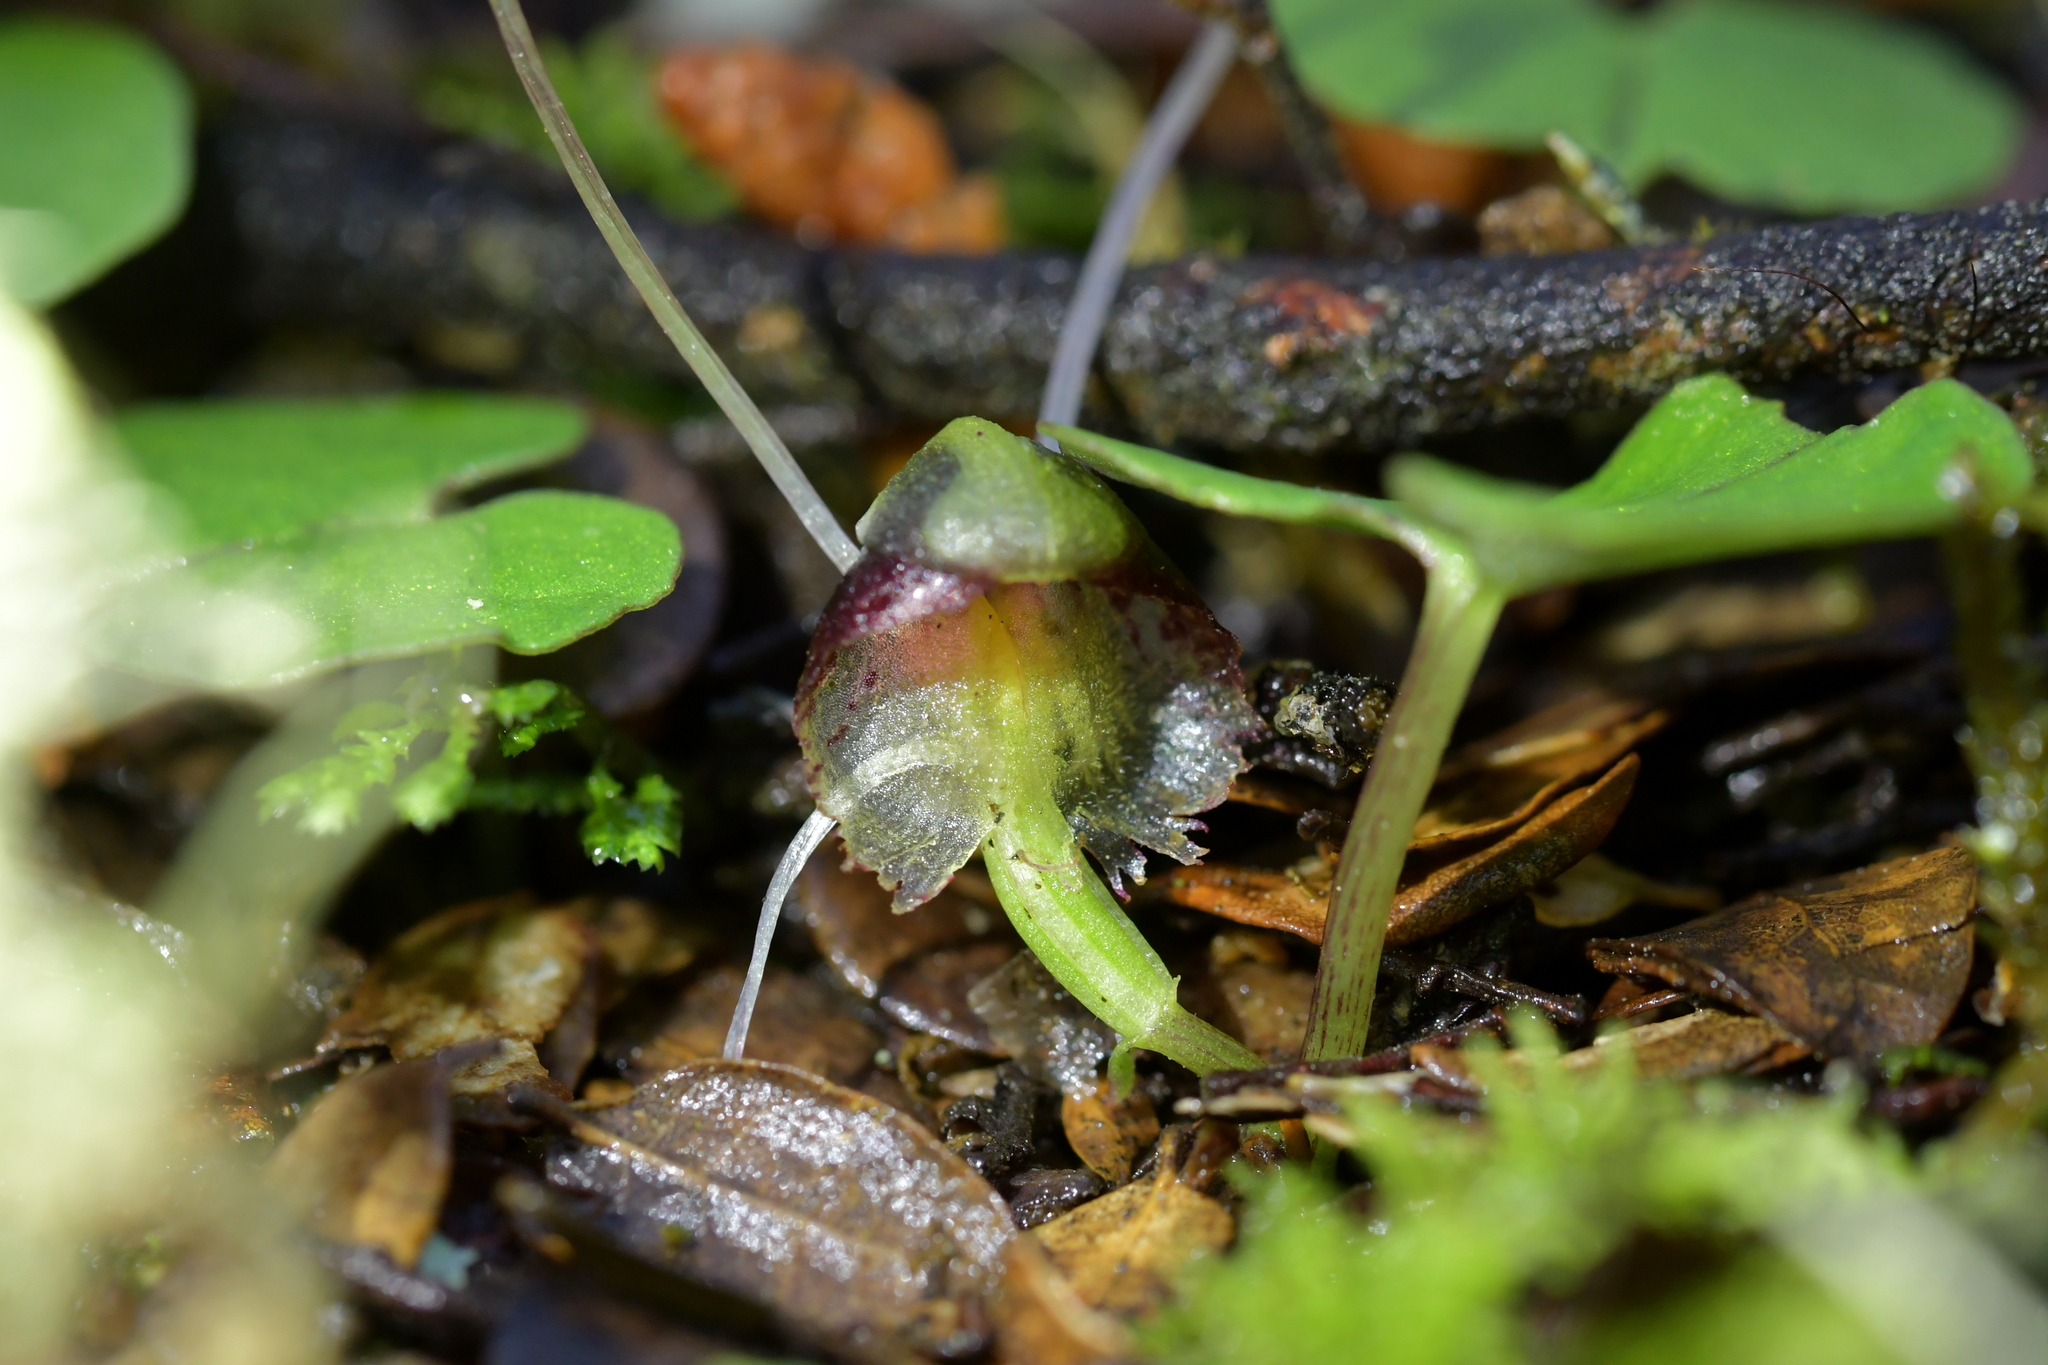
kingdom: Plantae
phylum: Tracheophyta
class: Liliopsida
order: Asparagales
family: Orchidaceae
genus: Corybas
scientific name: Corybas vitreus
